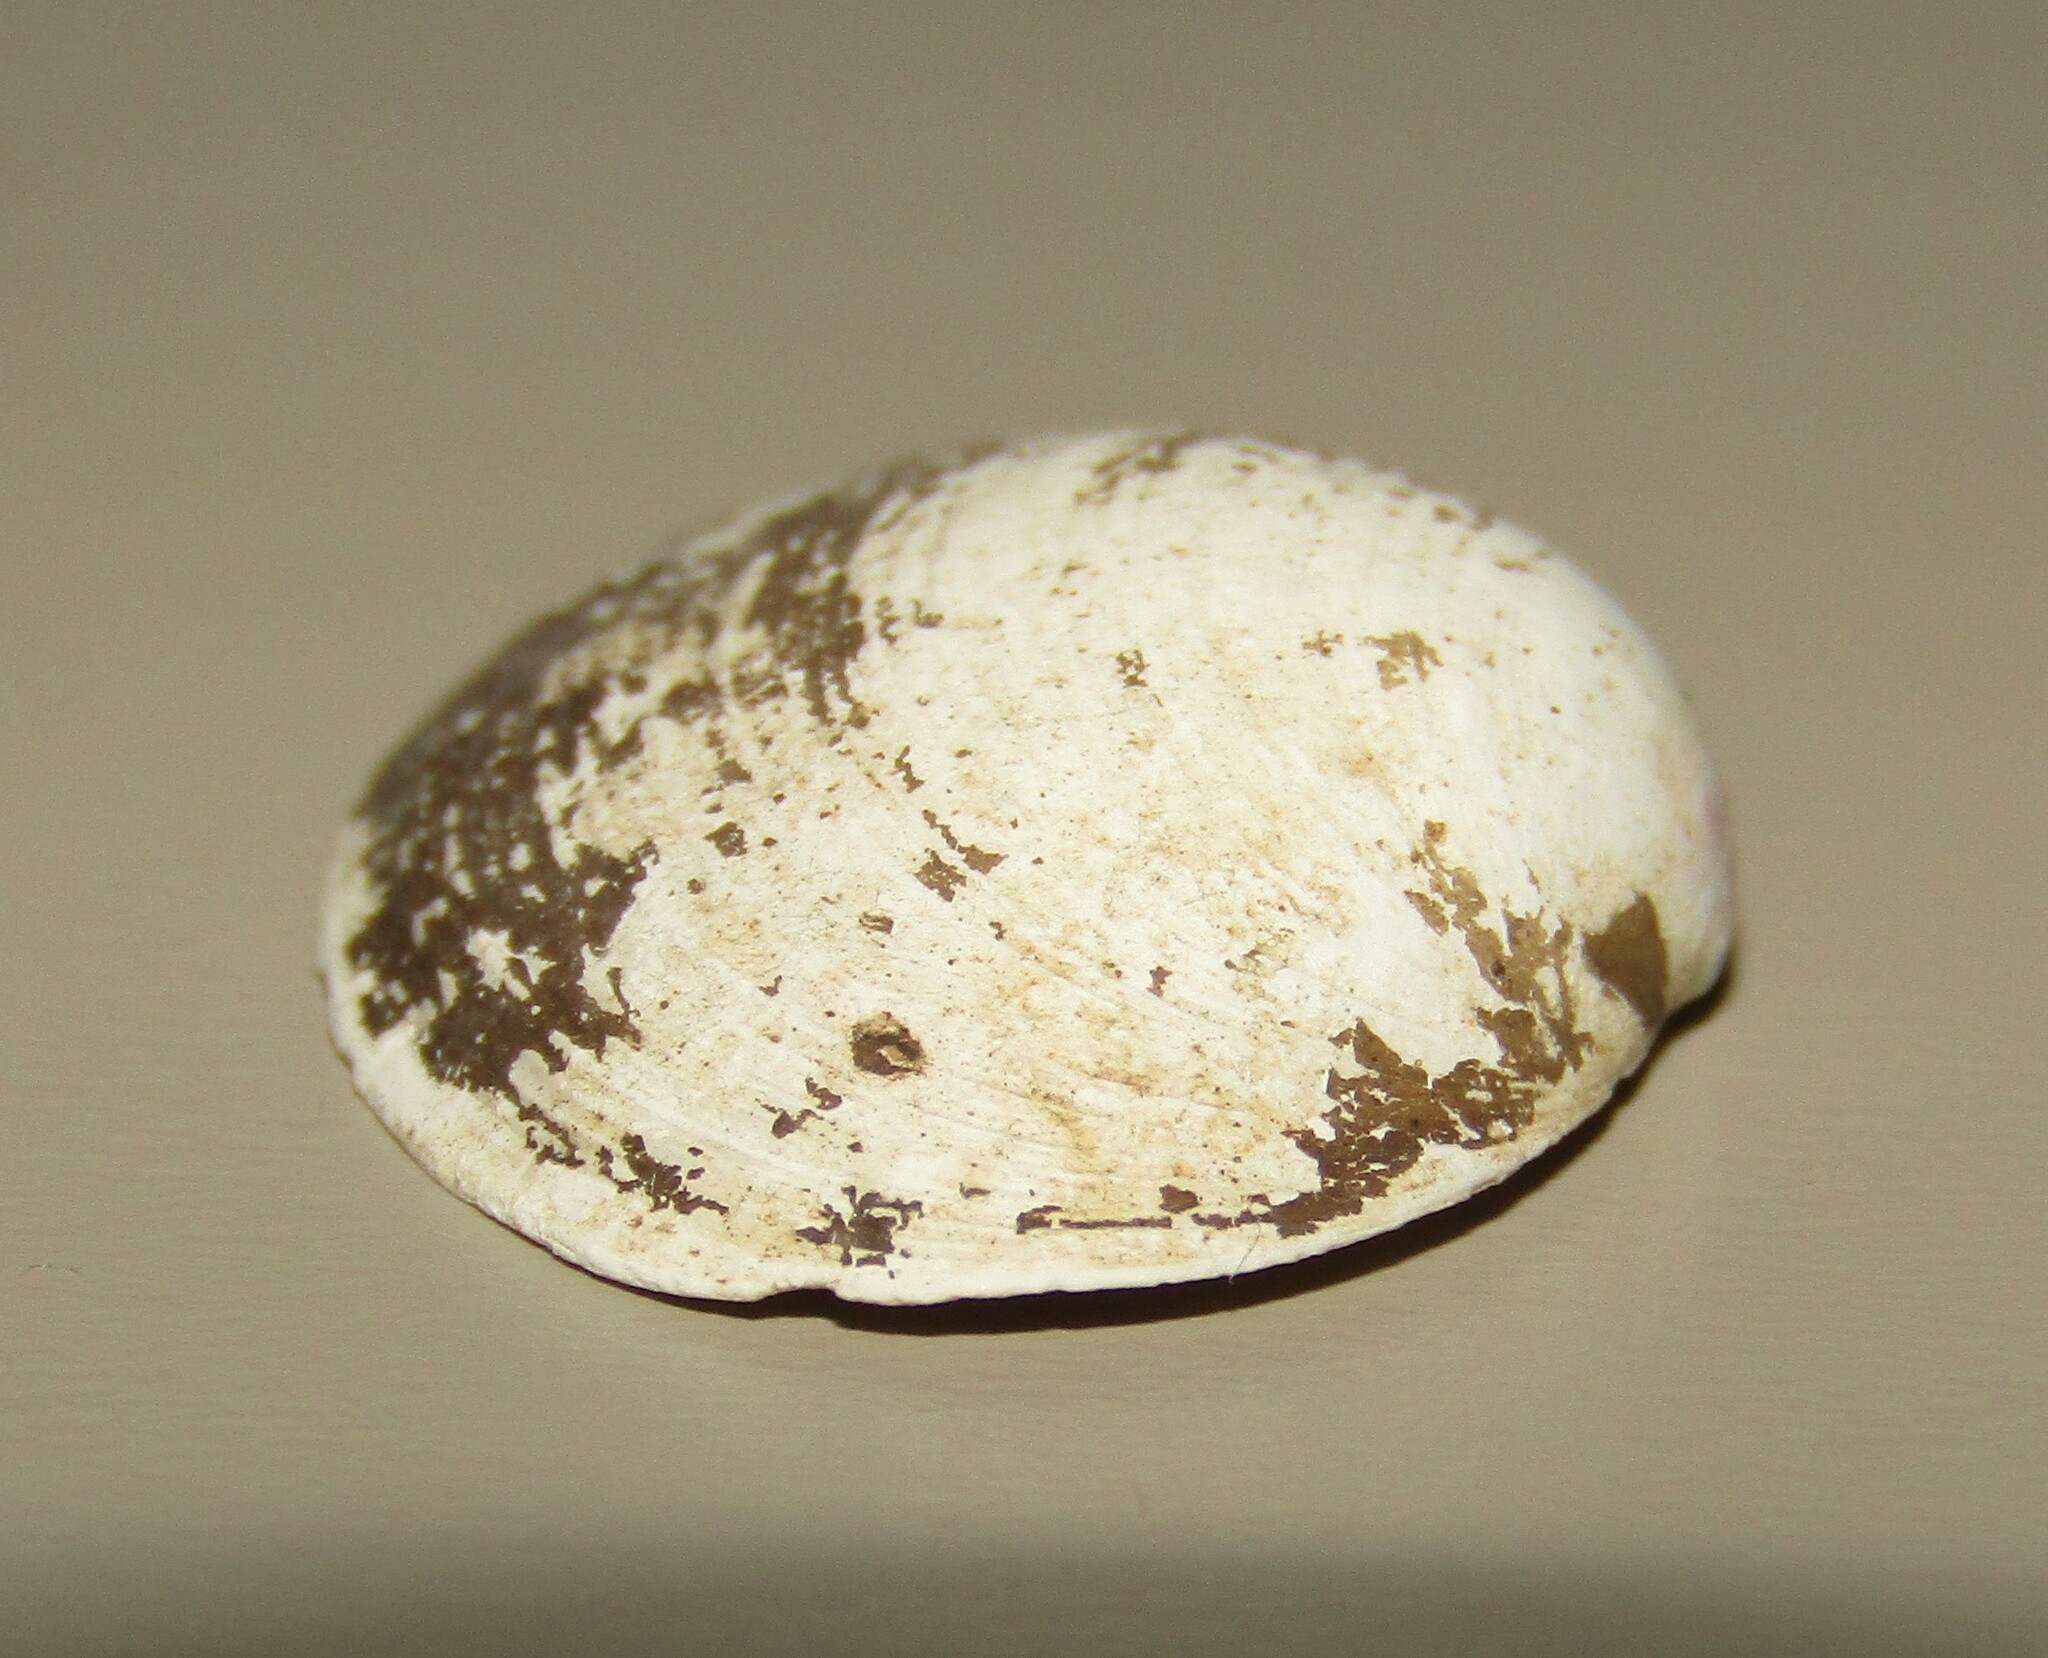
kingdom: Animalia
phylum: Mollusca
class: Bivalvia
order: Sphaeriida
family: Sphaeriidae
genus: Sphaerium
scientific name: Sphaerium rivicola
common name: Nut orb mussel
